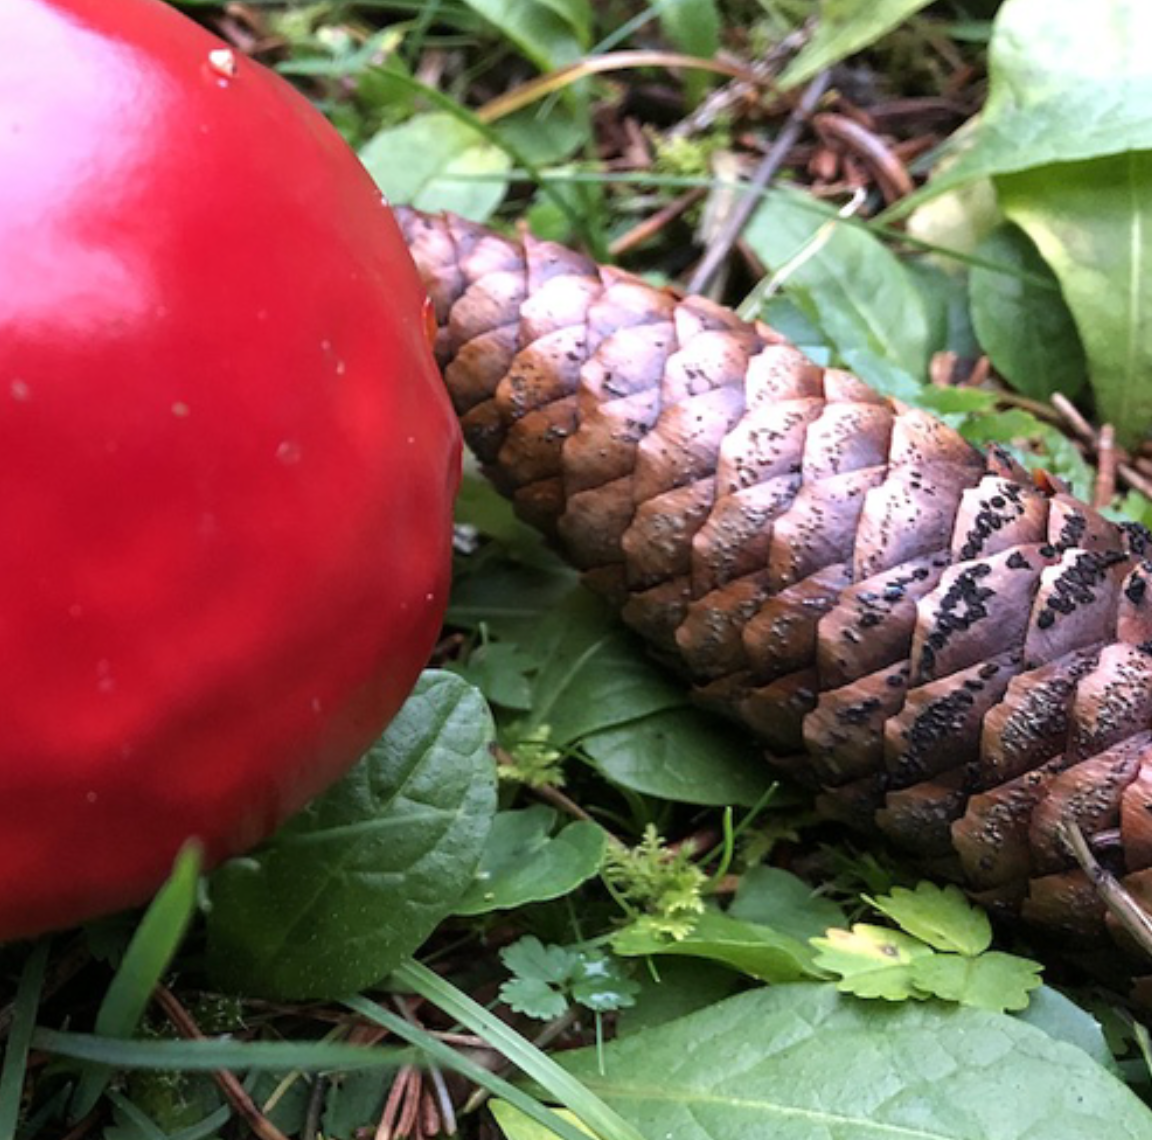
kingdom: Fungi
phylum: Ascomycota
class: Dothideomycetes
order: Pleosporales
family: Melanommataceae
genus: Phragmotrichum
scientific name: Phragmotrichum chailletii
